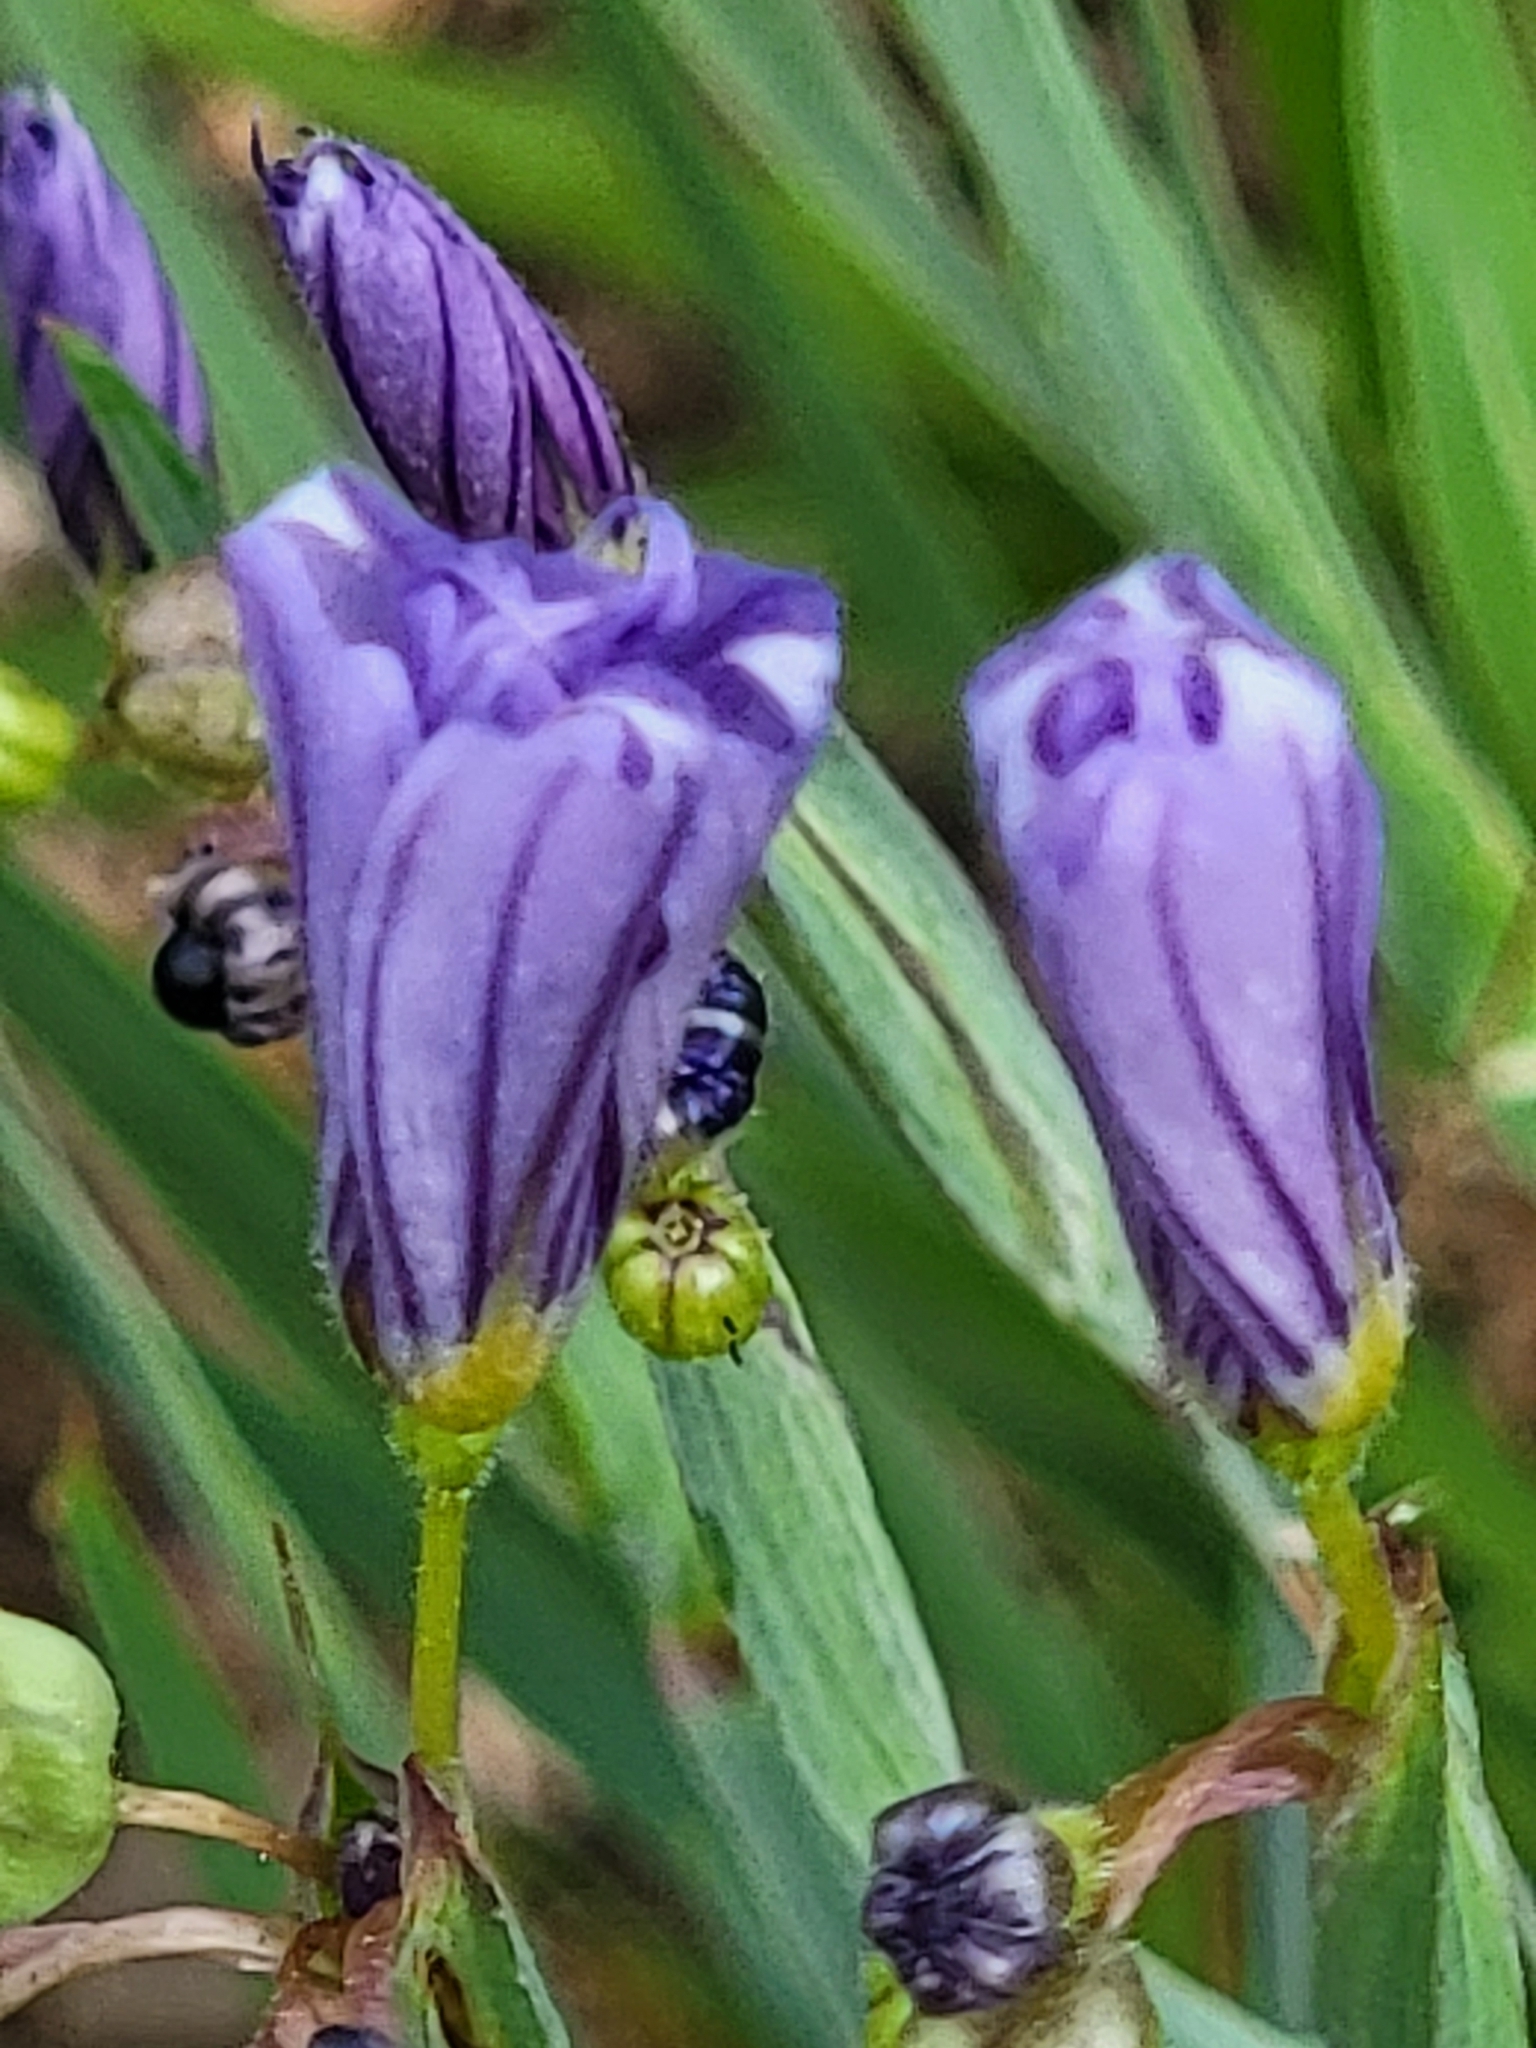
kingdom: Plantae
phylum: Tracheophyta
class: Liliopsida
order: Asparagales
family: Asparagaceae
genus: Triteleia
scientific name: Triteleia laxa
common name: Triplet-lily
